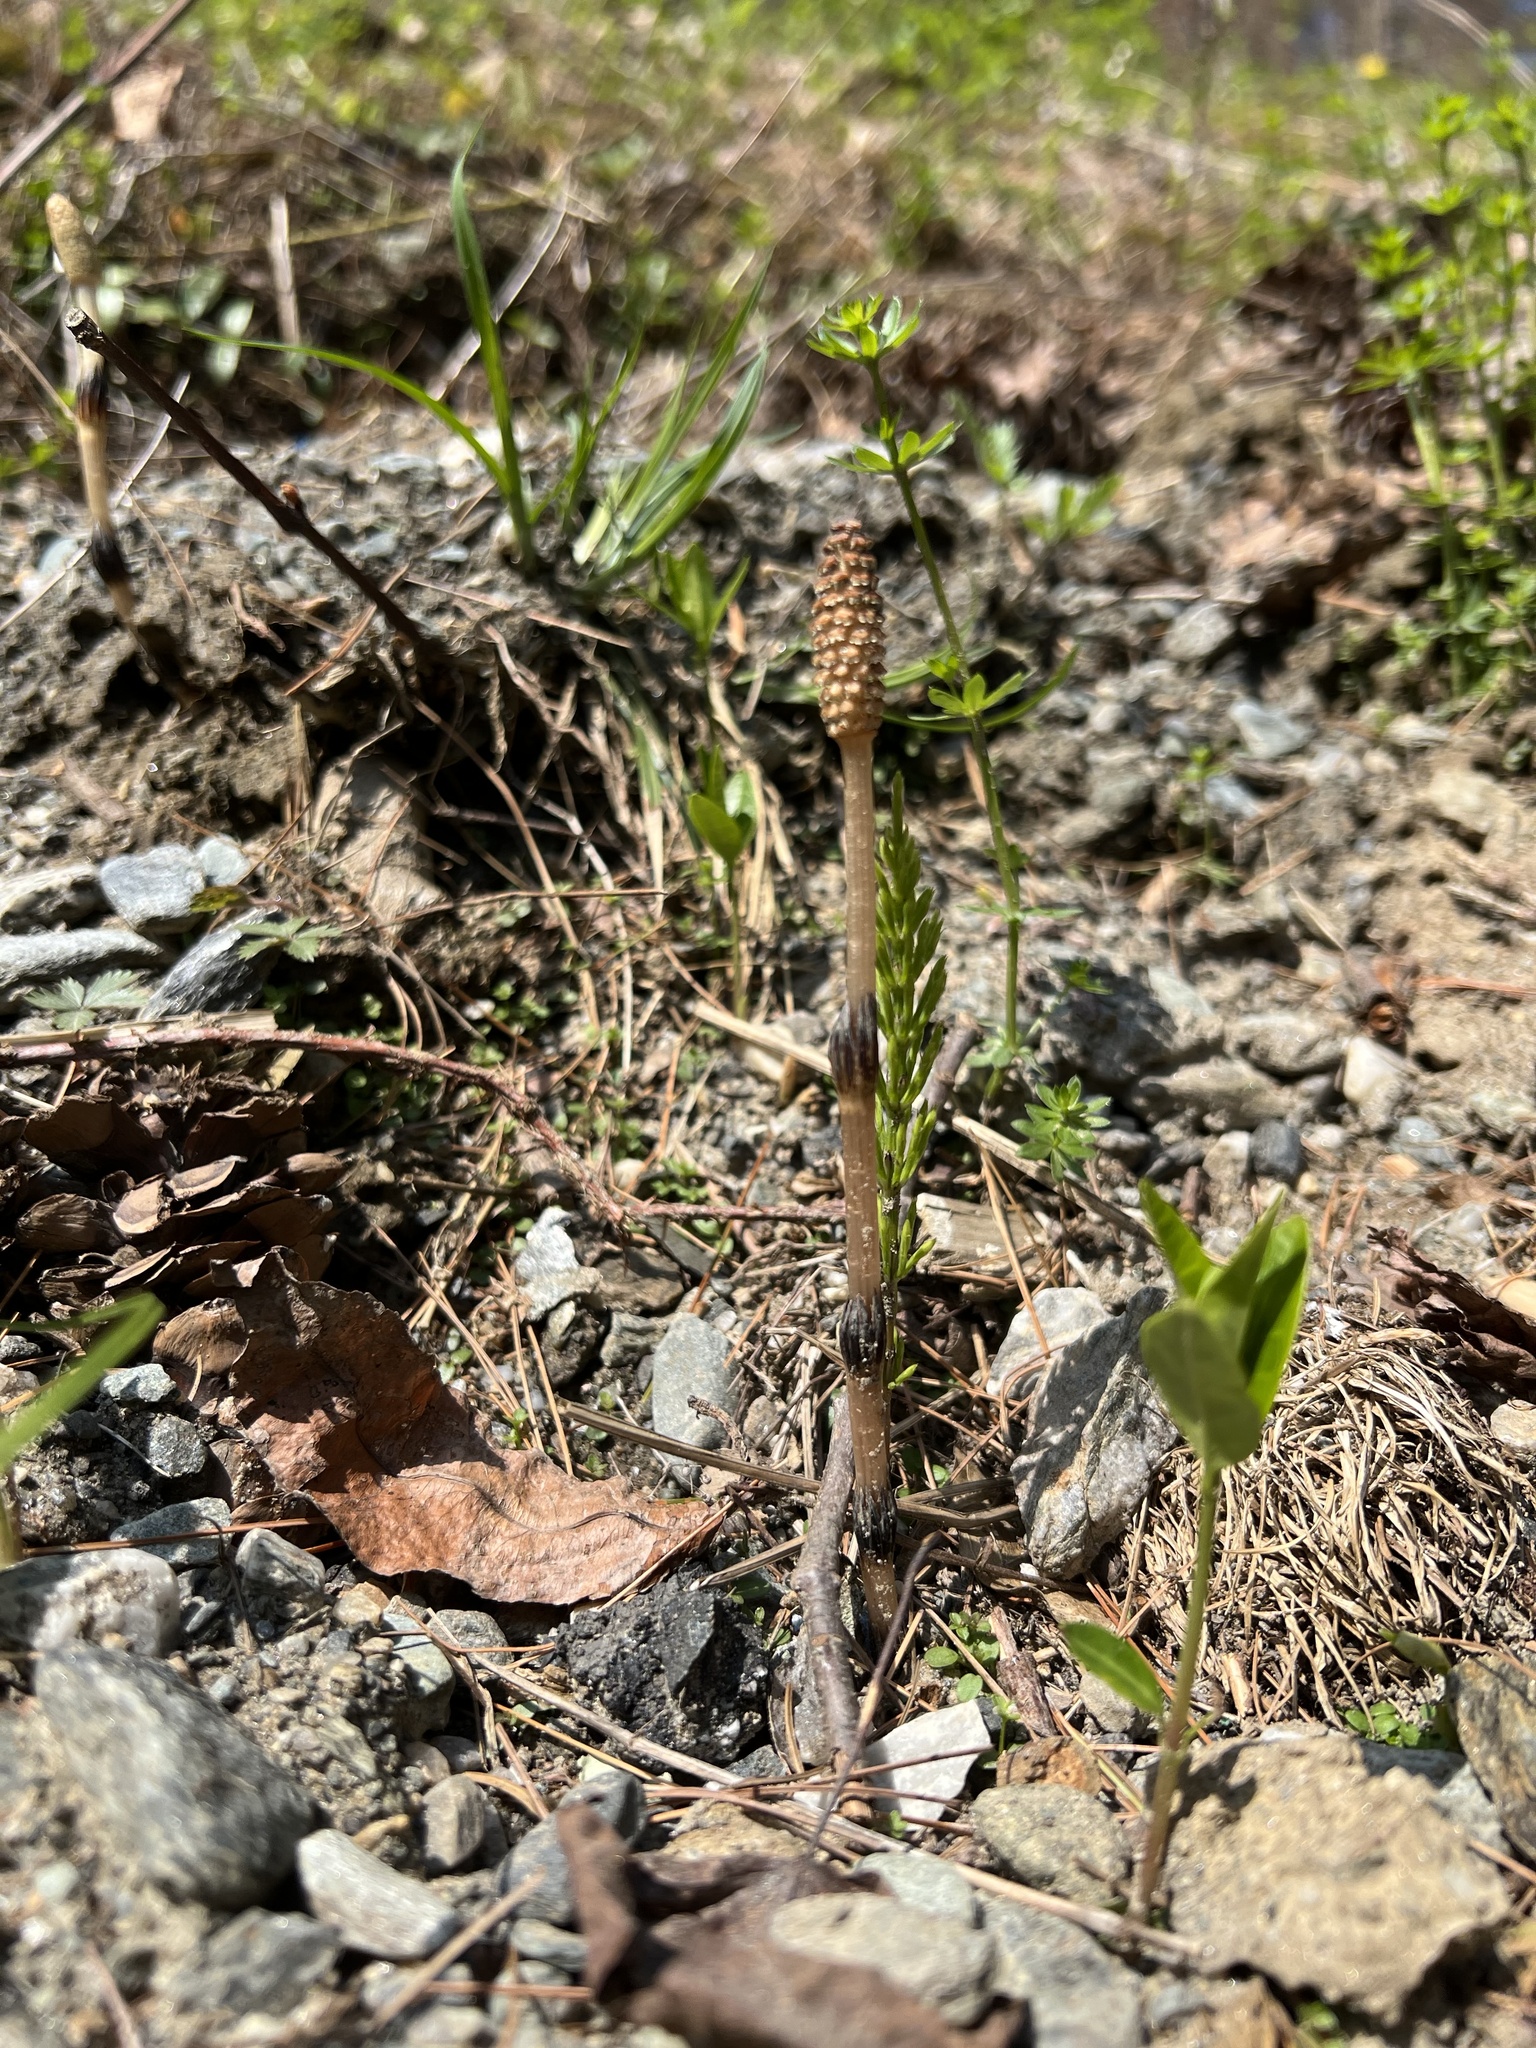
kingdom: Plantae
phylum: Tracheophyta
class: Polypodiopsida
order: Equisetales
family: Equisetaceae
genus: Equisetum
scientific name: Equisetum arvense
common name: Field horsetail
